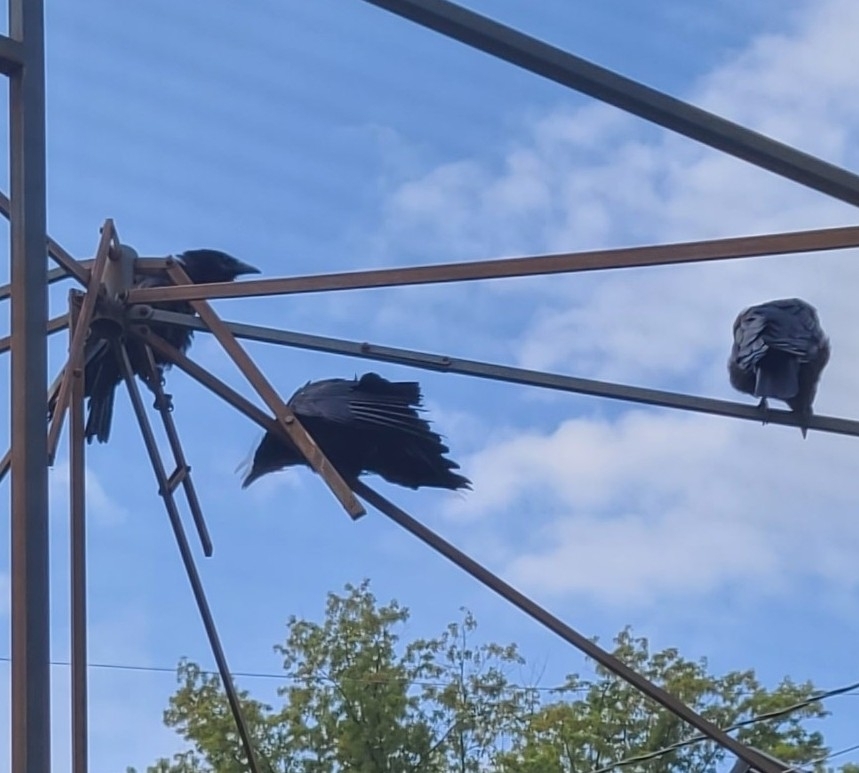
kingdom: Animalia
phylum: Chordata
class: Aves
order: Passeriformes
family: Corvidae
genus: Corvus
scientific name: Corvus brachyrhynchos
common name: American crow
